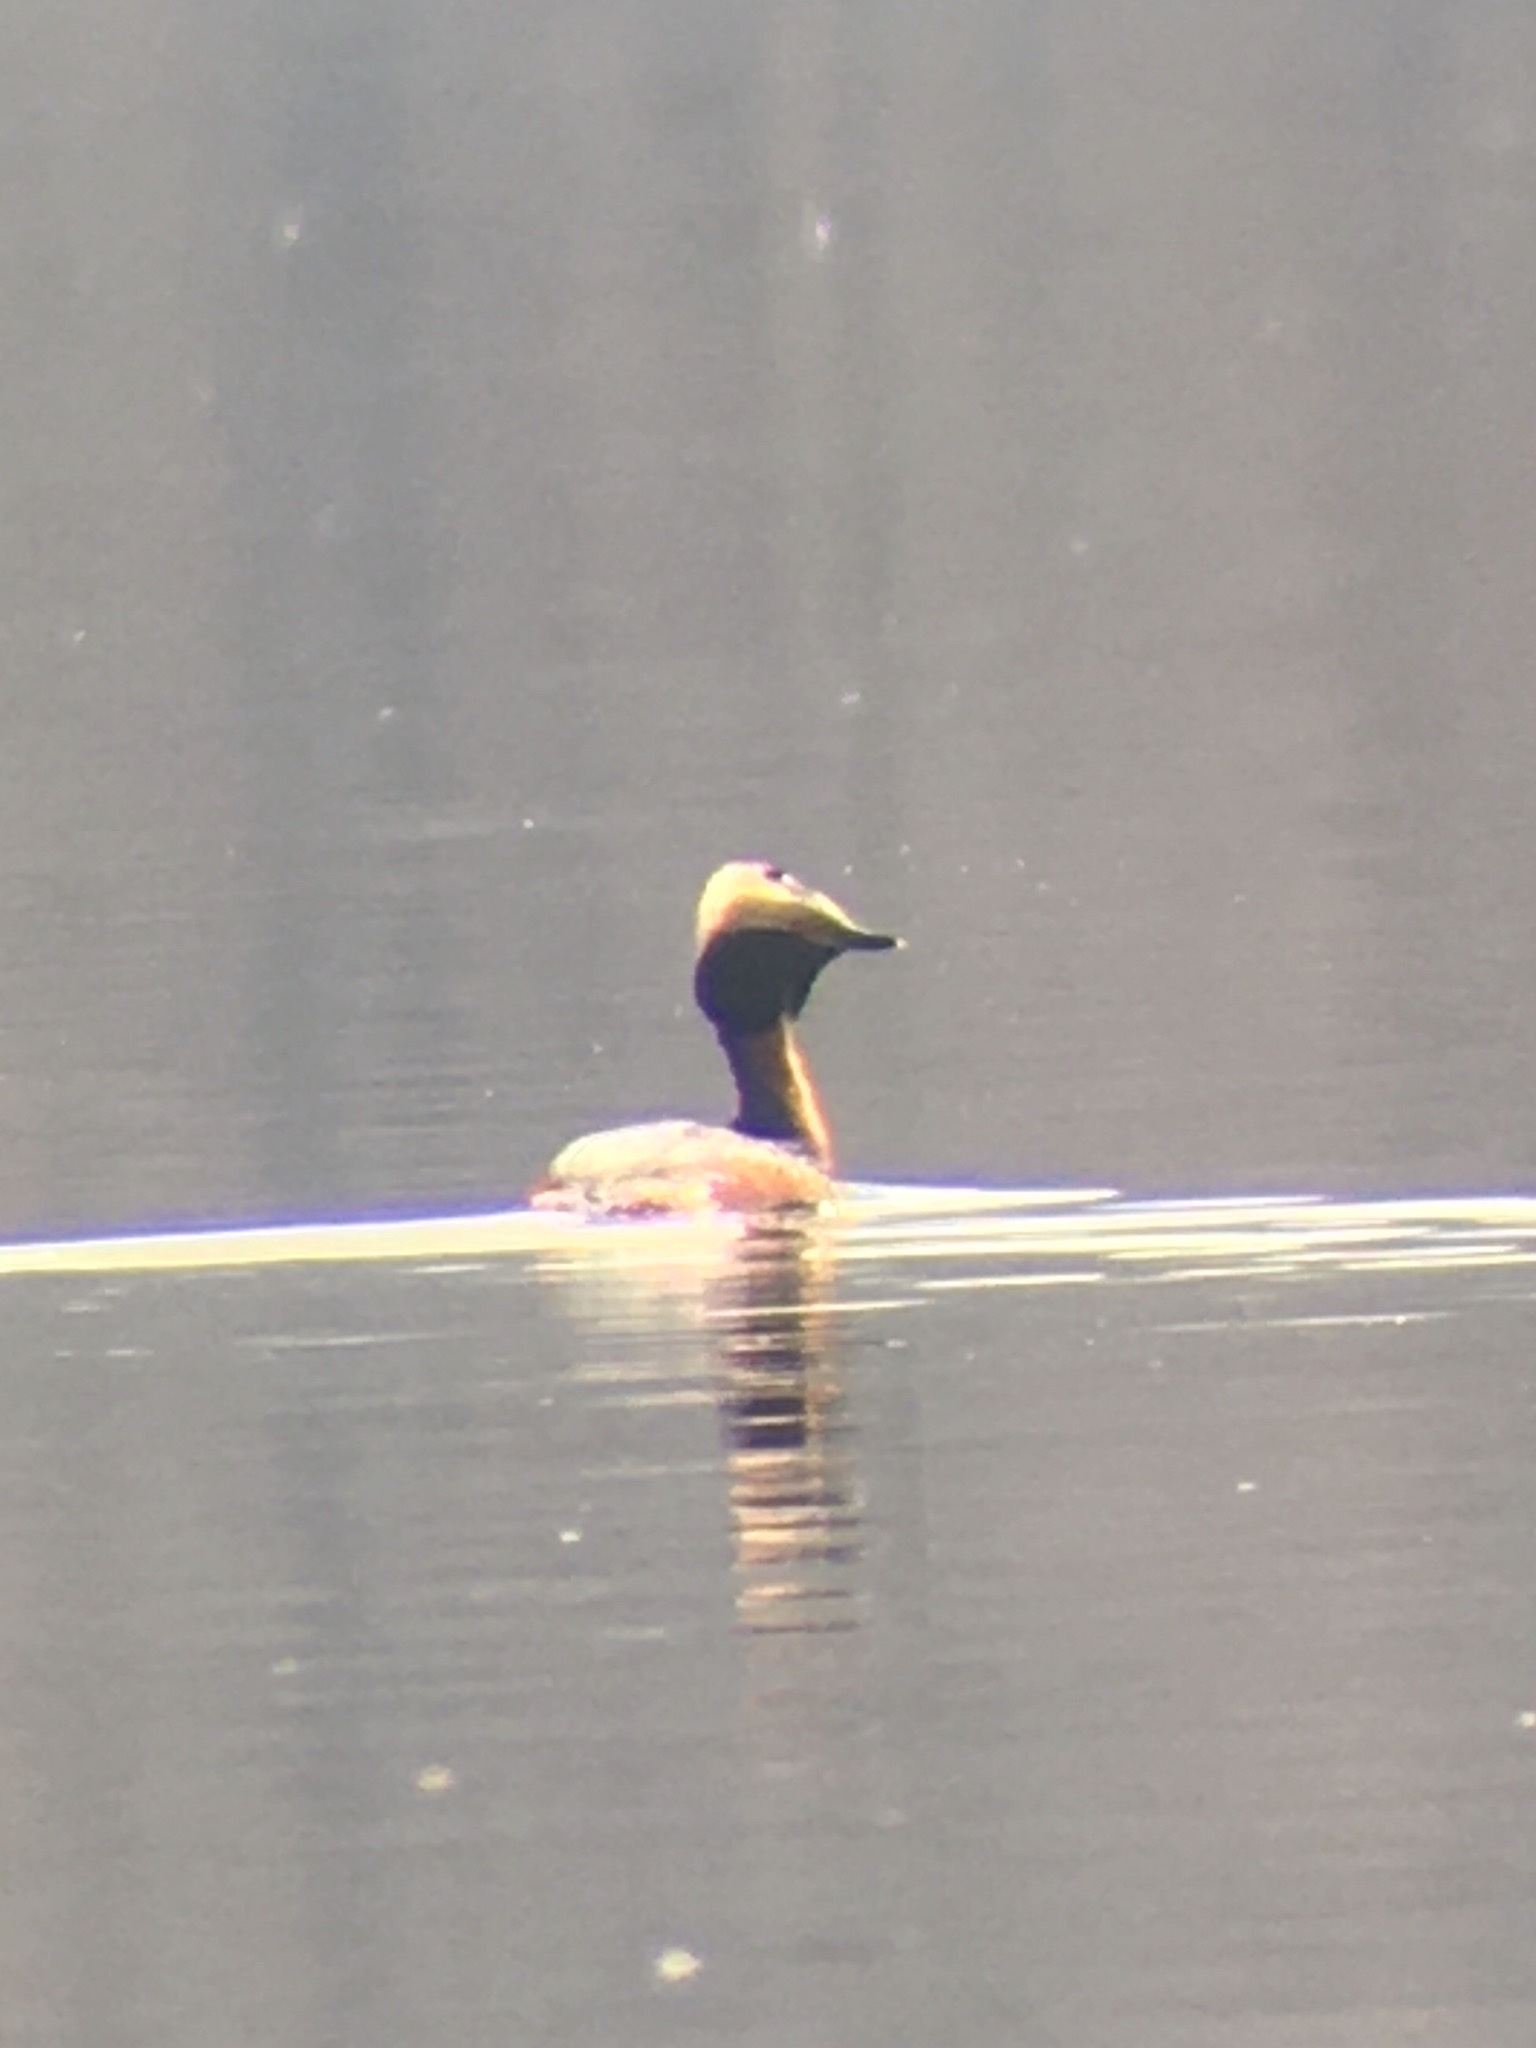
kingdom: Animalia
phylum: Chordata
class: Aves
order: Podicipediformes
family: Podicipedidae
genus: Podiceps
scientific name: Podiceps auritus
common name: Horned grebe
